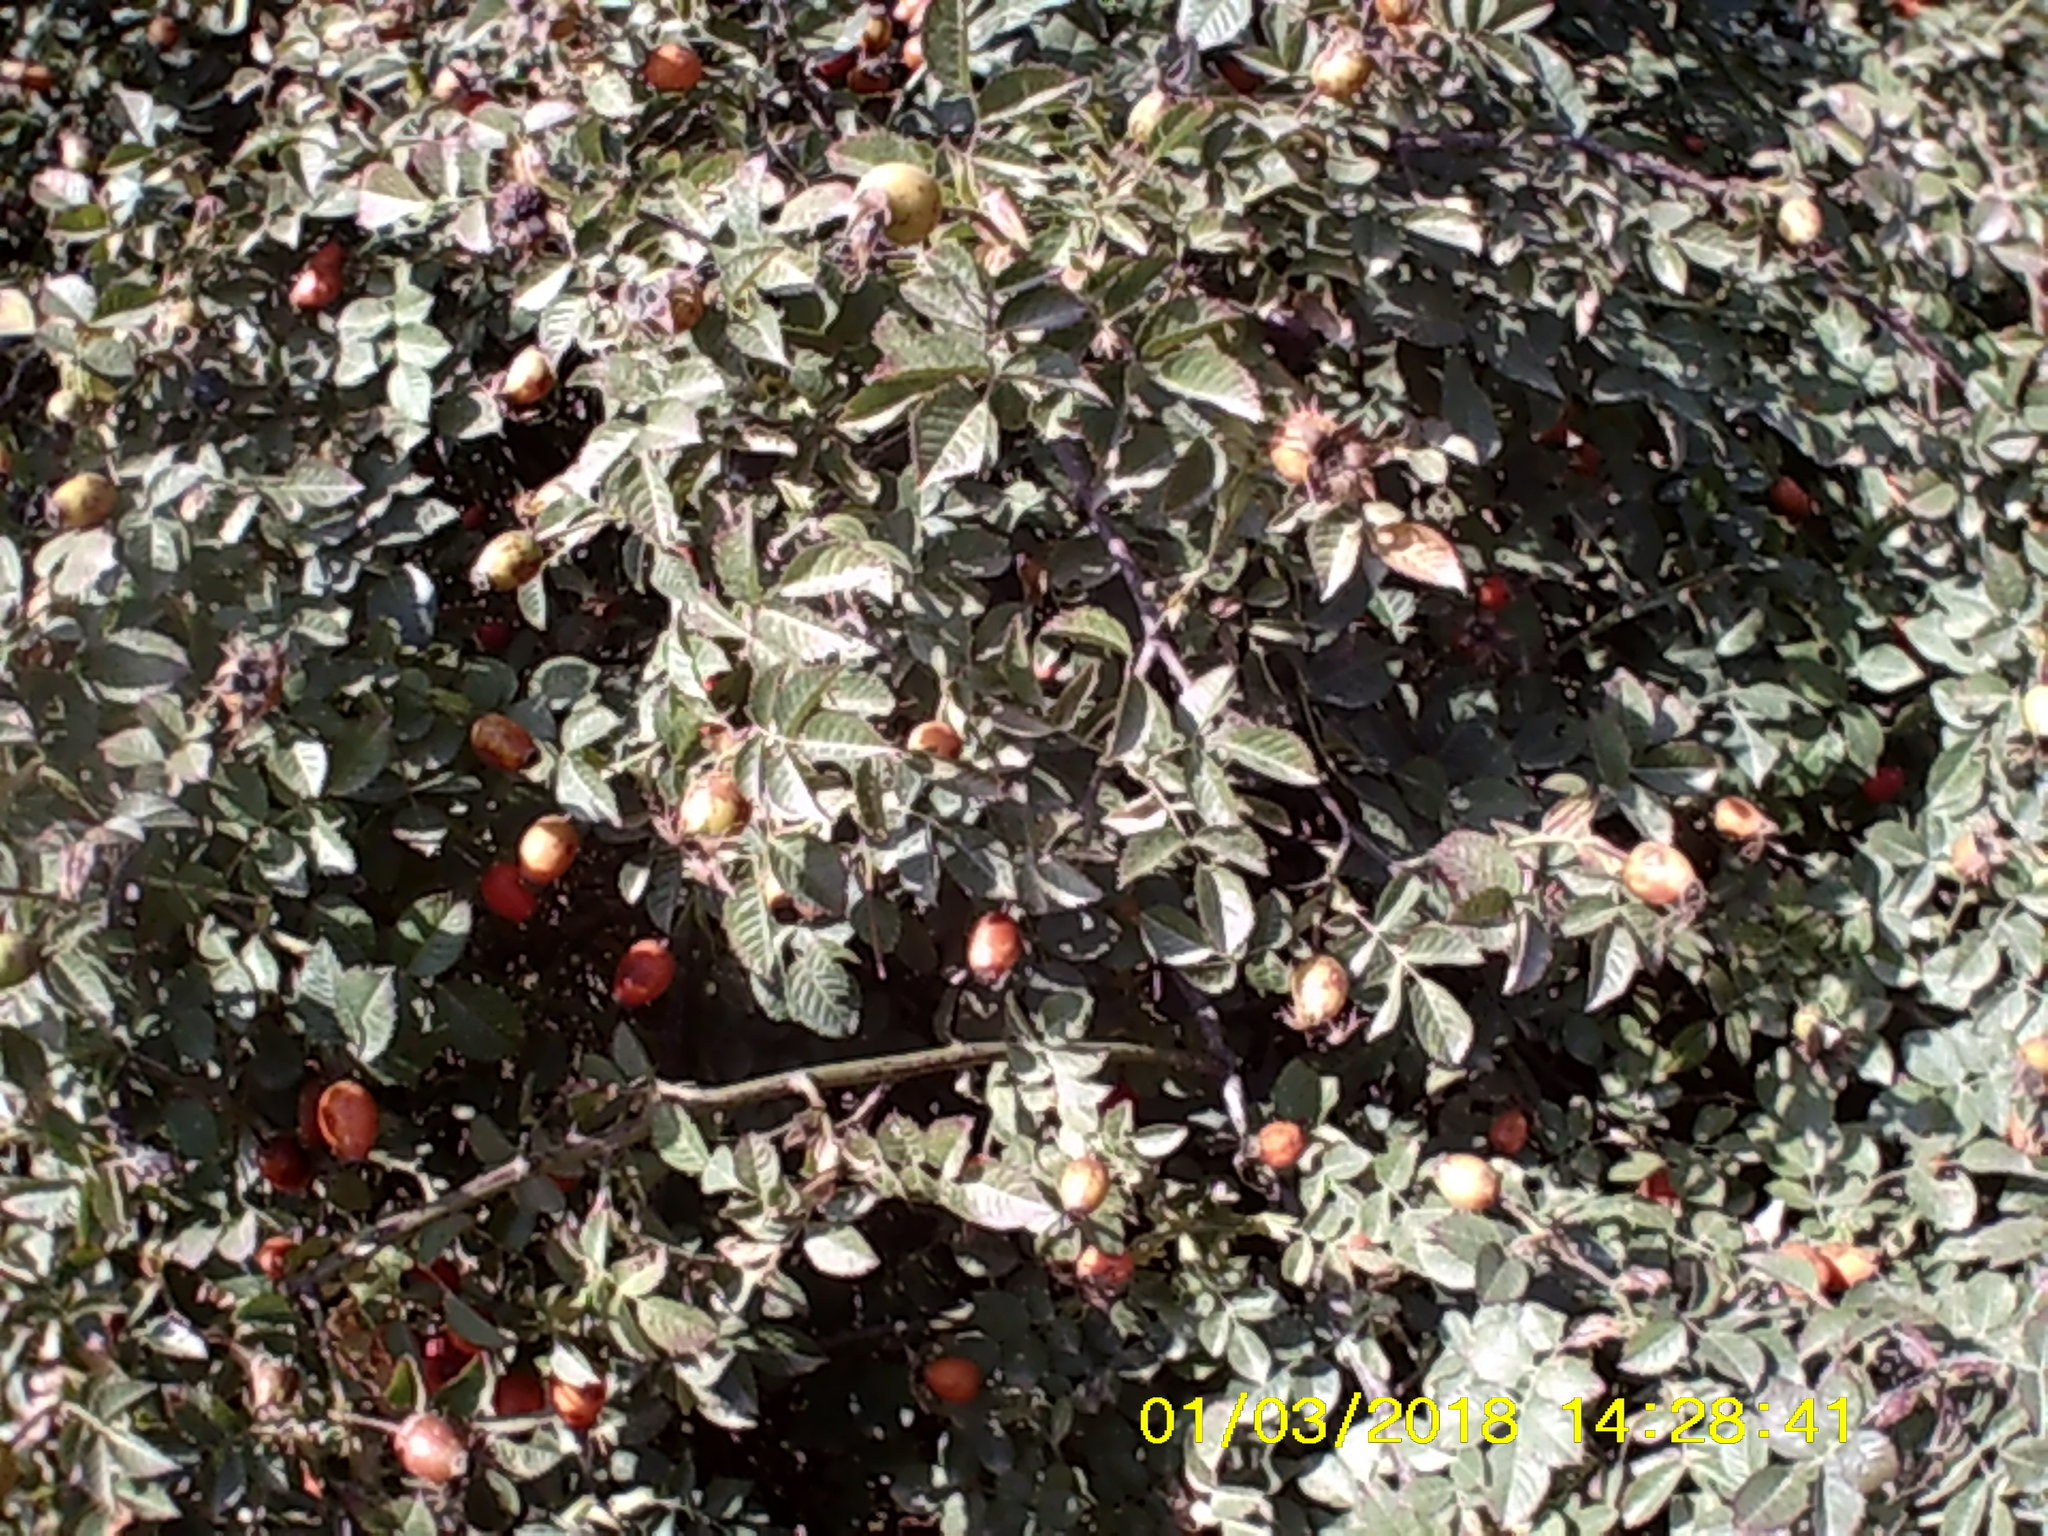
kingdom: Plantae
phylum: Tracheophyta
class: Magnoliopsida
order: Rosales
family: Rosaceae
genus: Rosa
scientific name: Rosa
